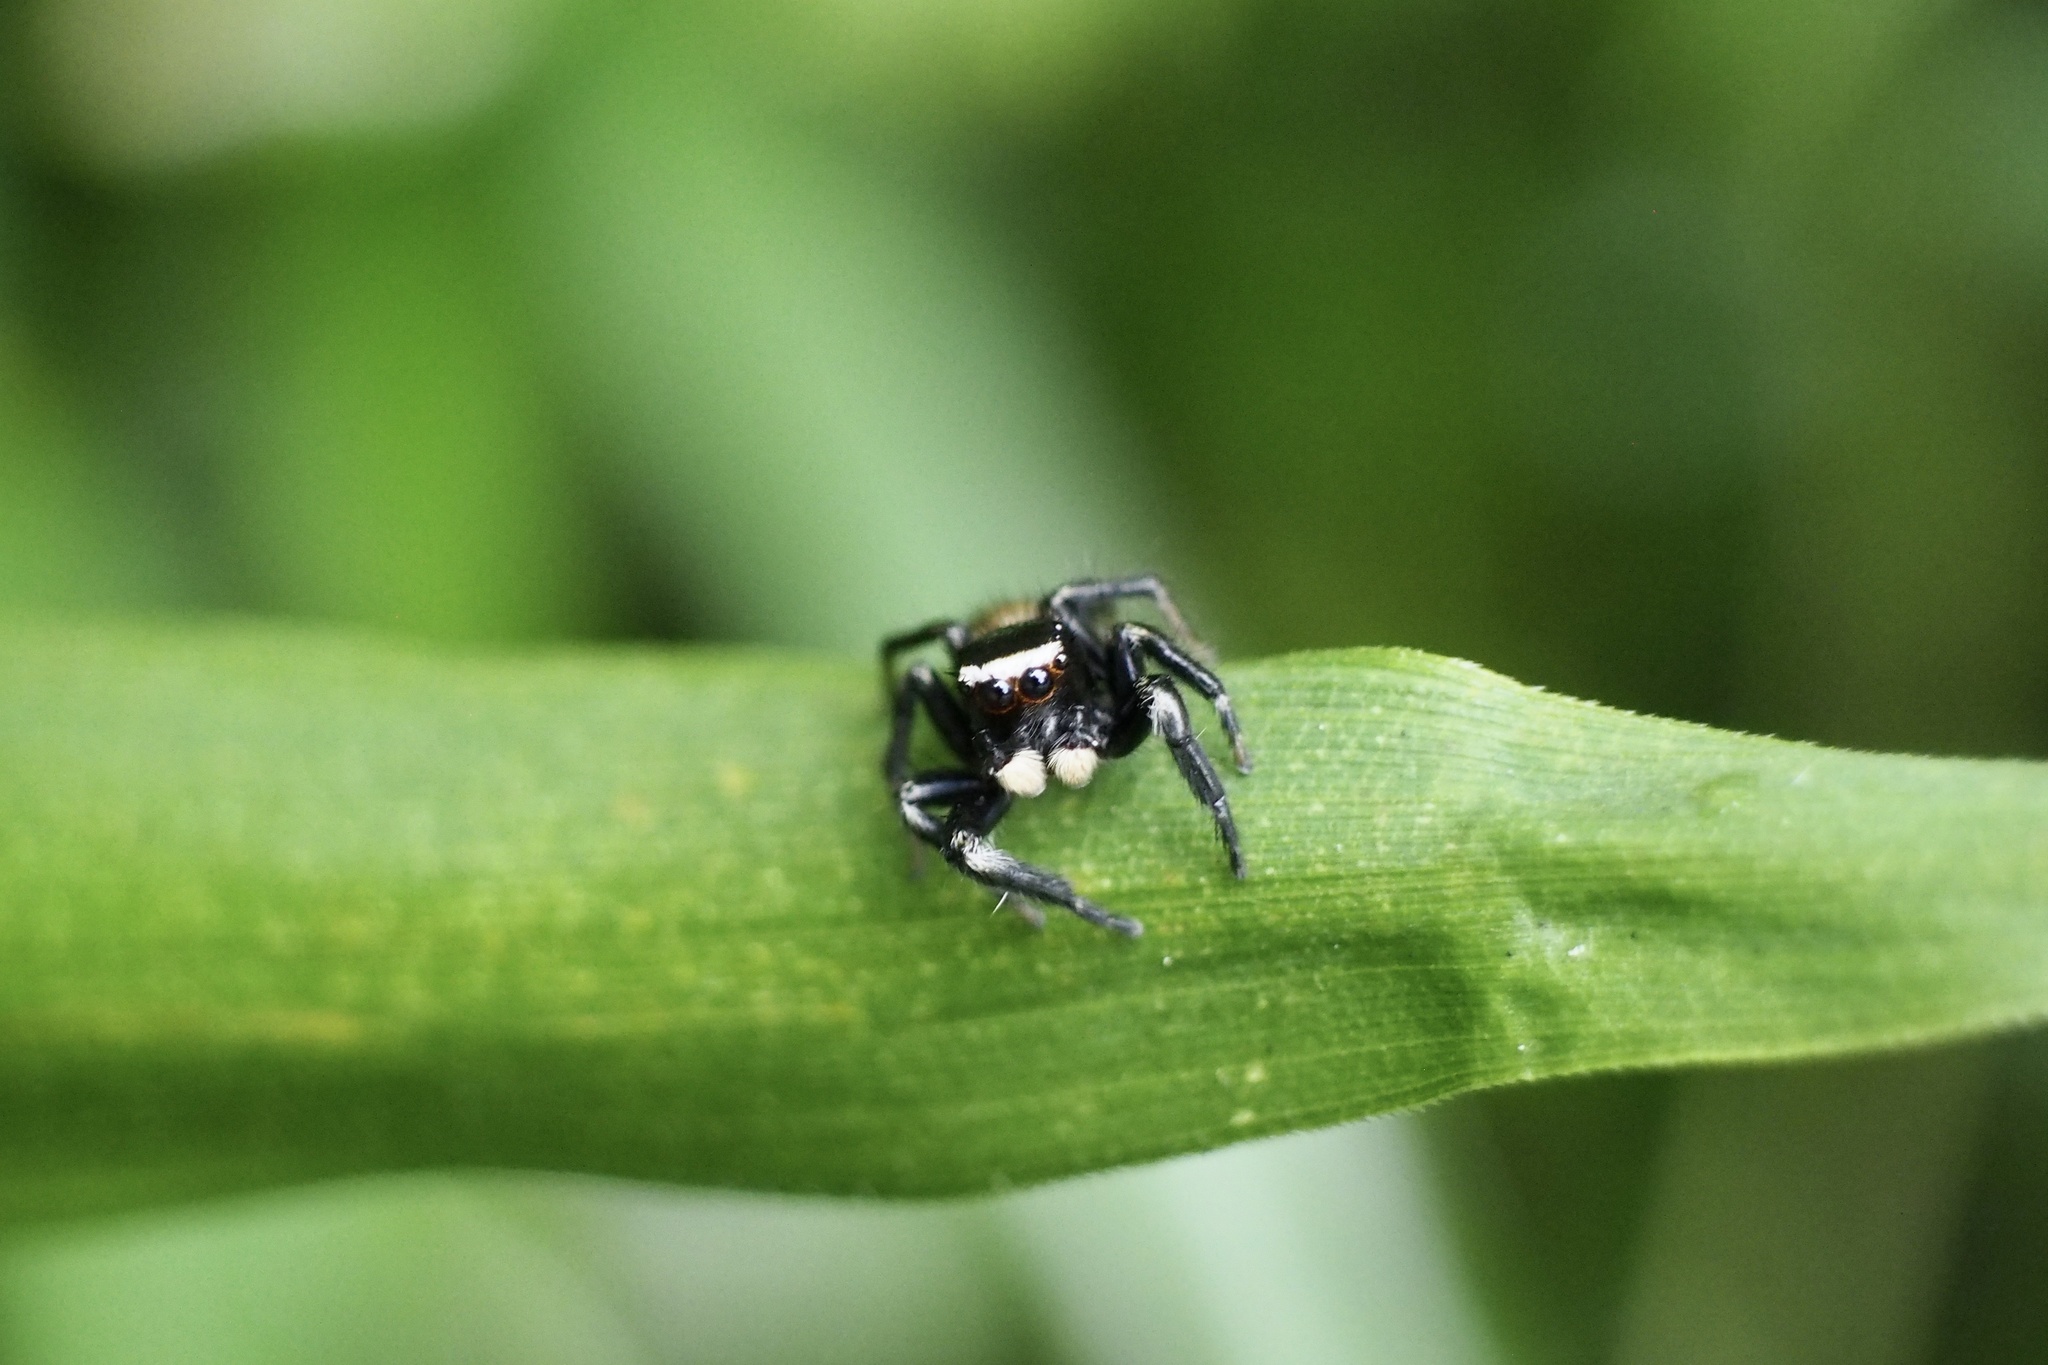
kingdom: Animalia
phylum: Arthropoda
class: Arachnida
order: Araneae
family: Salticidae
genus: Evarcha
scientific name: Evarcha albaria
